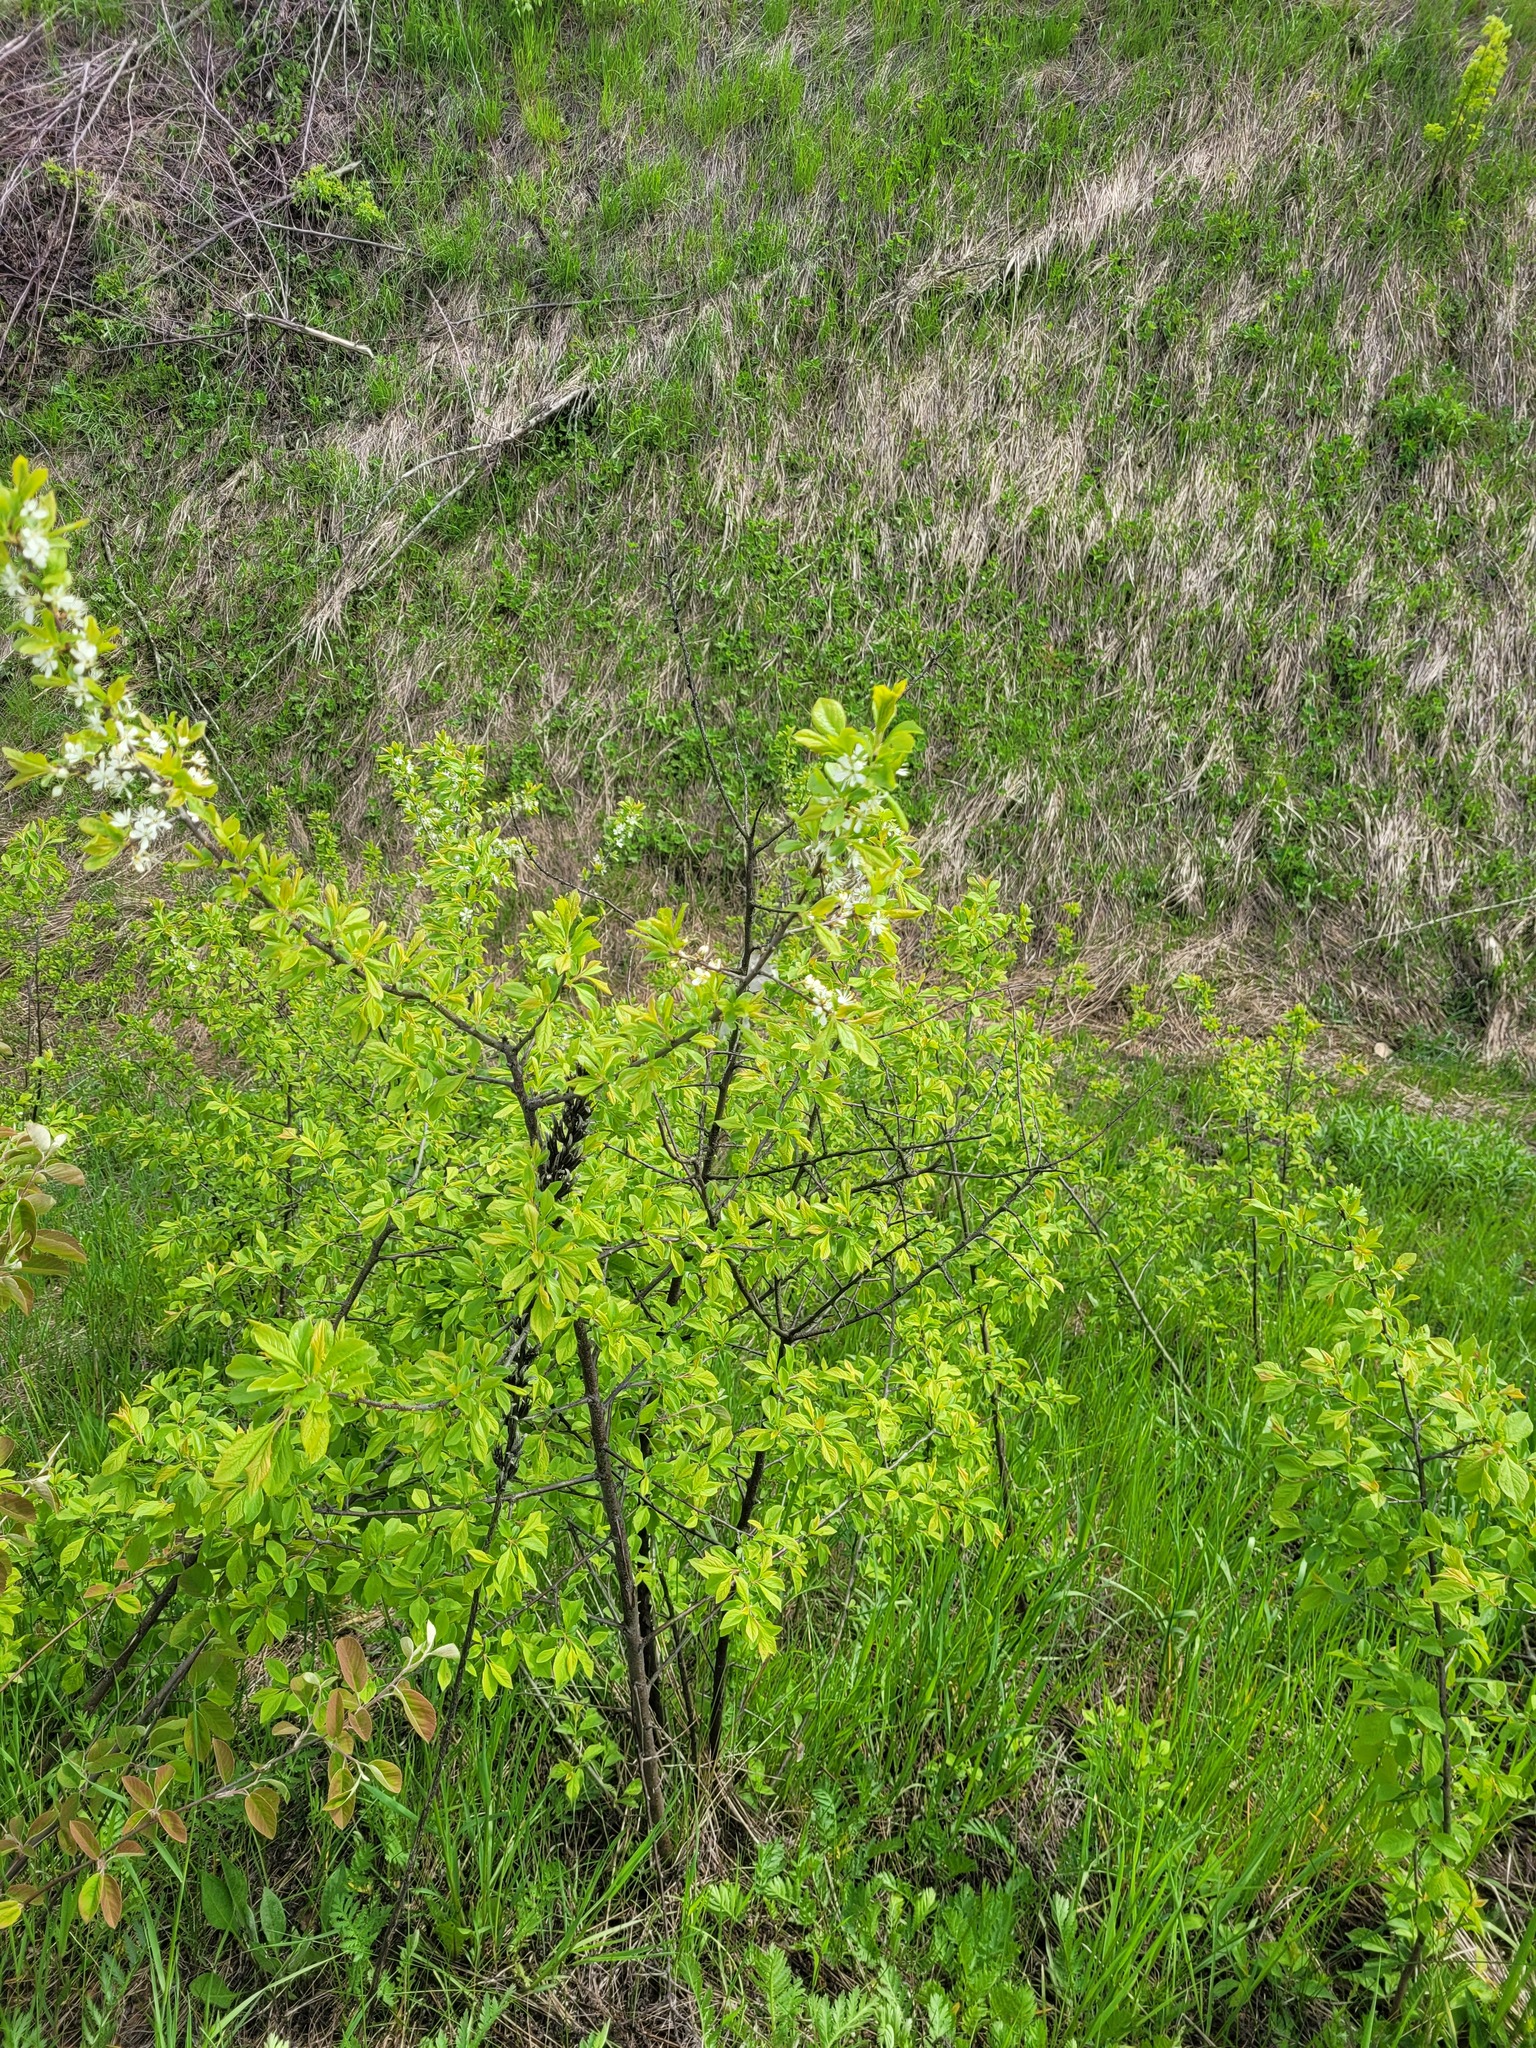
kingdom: Plantae
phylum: Tracheophyta
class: Magnoliopsida
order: Rosales
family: Rosaceae
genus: Prunus
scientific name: Prunus spinosa
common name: Blackthorn
